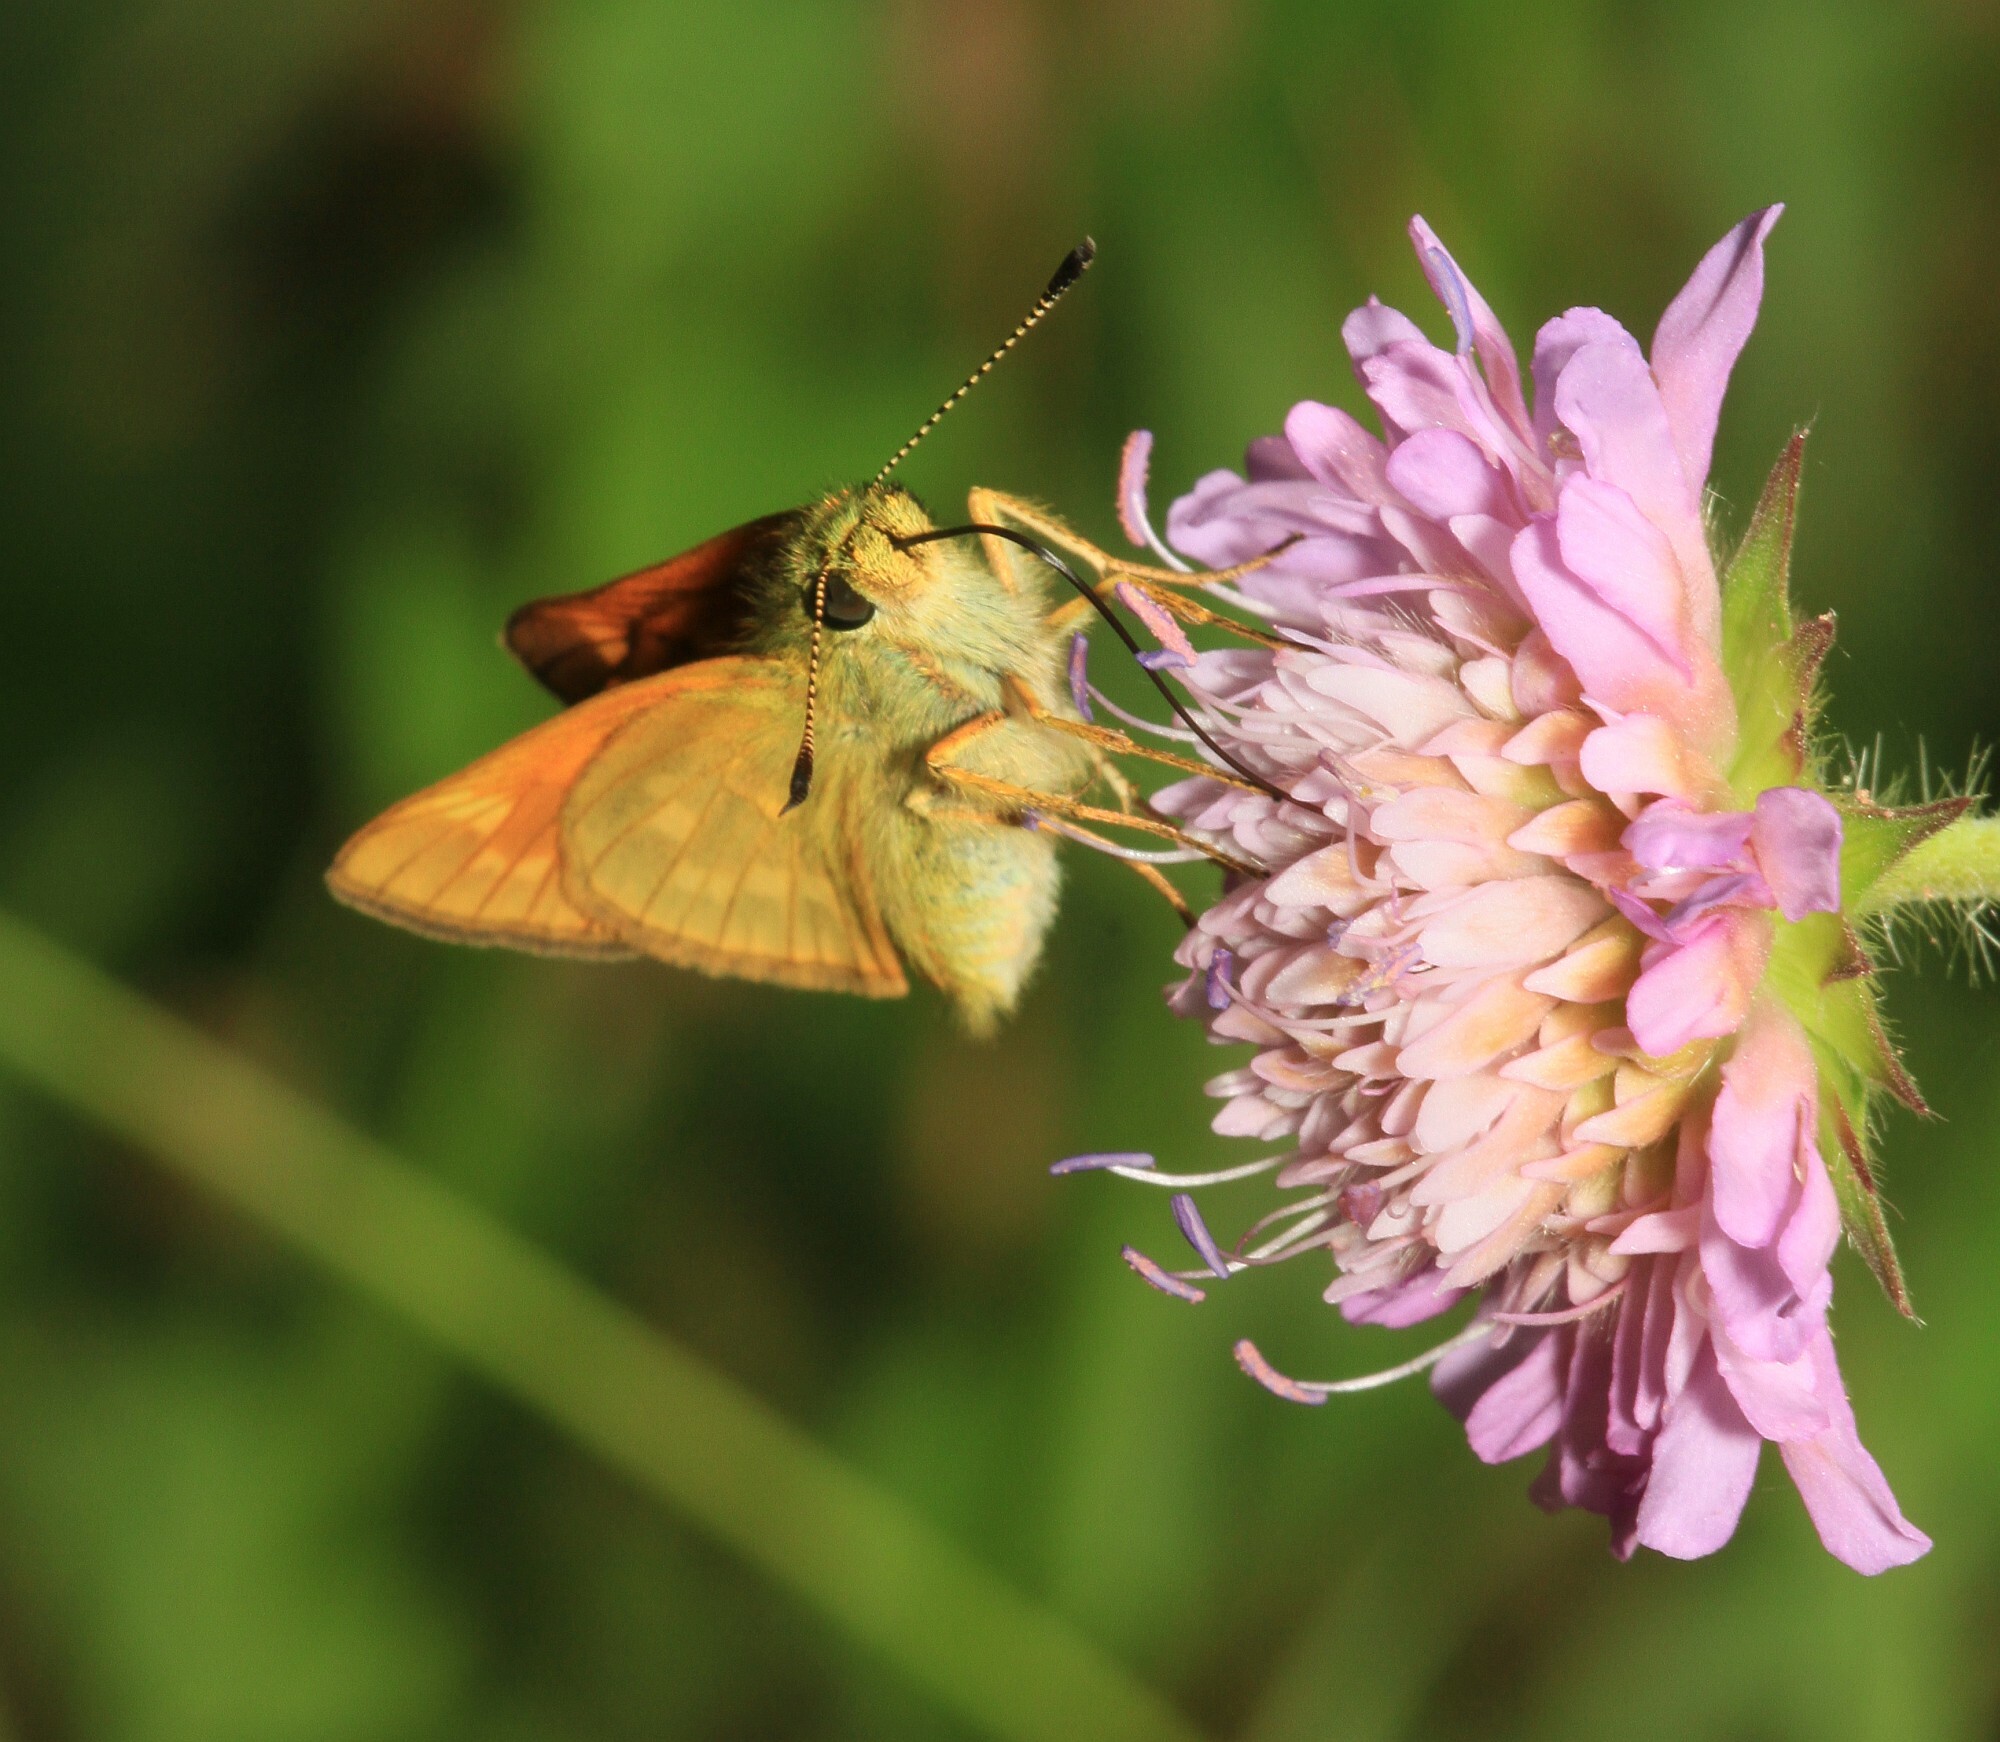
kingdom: Animalia
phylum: Arthropoda
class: Insecta
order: Lepidoptera
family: Hesperiidae
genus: Ochlodes
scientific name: Ochlodes venata
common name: Large skipper
